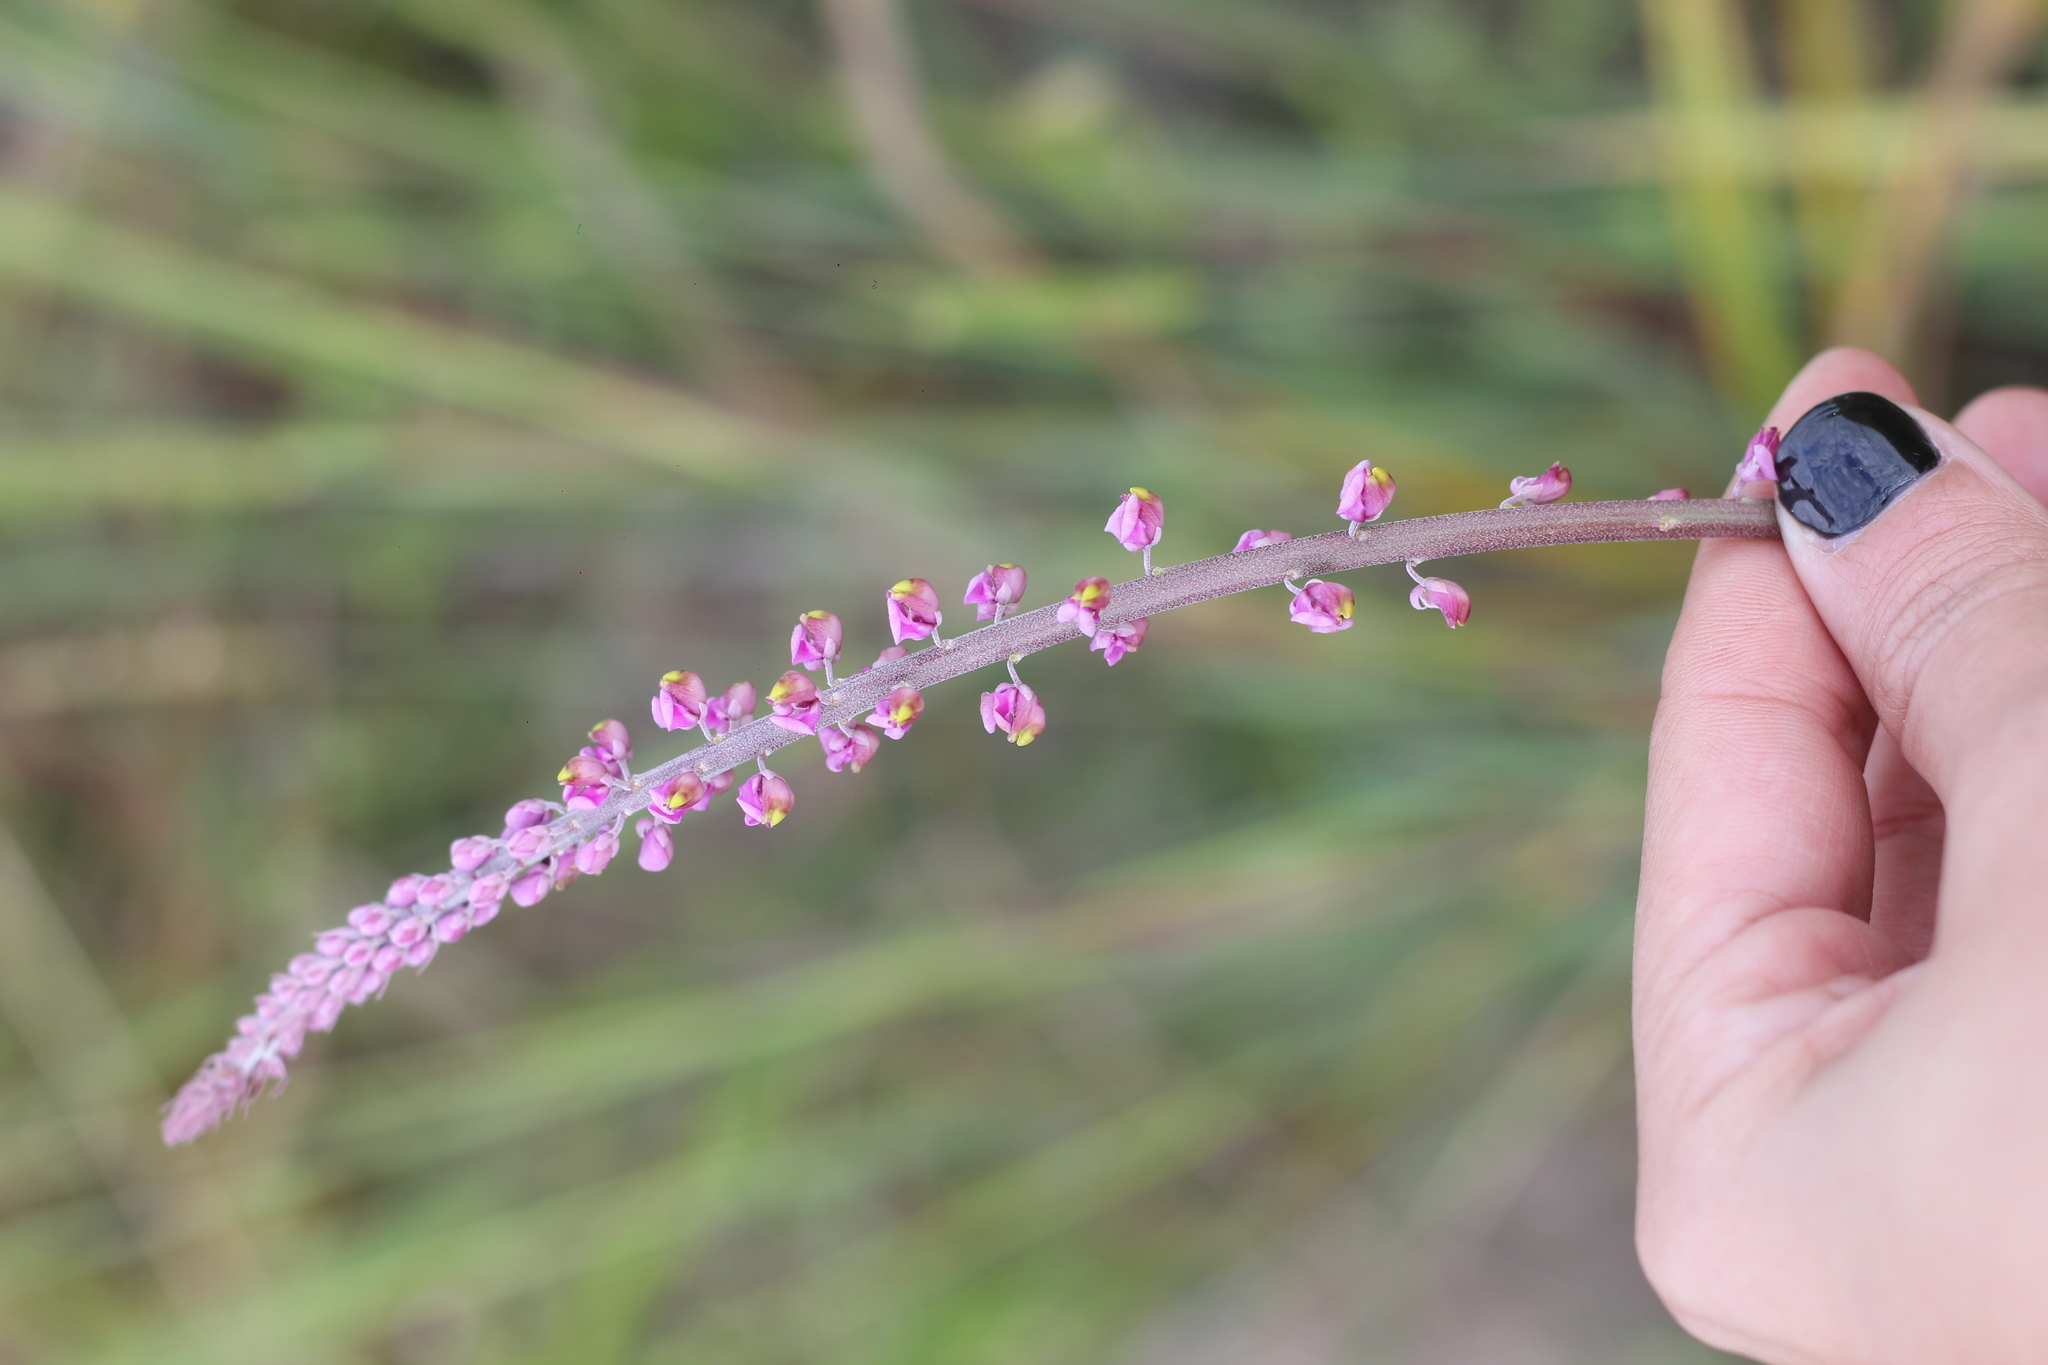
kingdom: Plantae
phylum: Tracheophyta
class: Magnoliopsida
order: Fabales
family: Polygalaceae
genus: Monnina
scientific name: Monnina tristaniana
